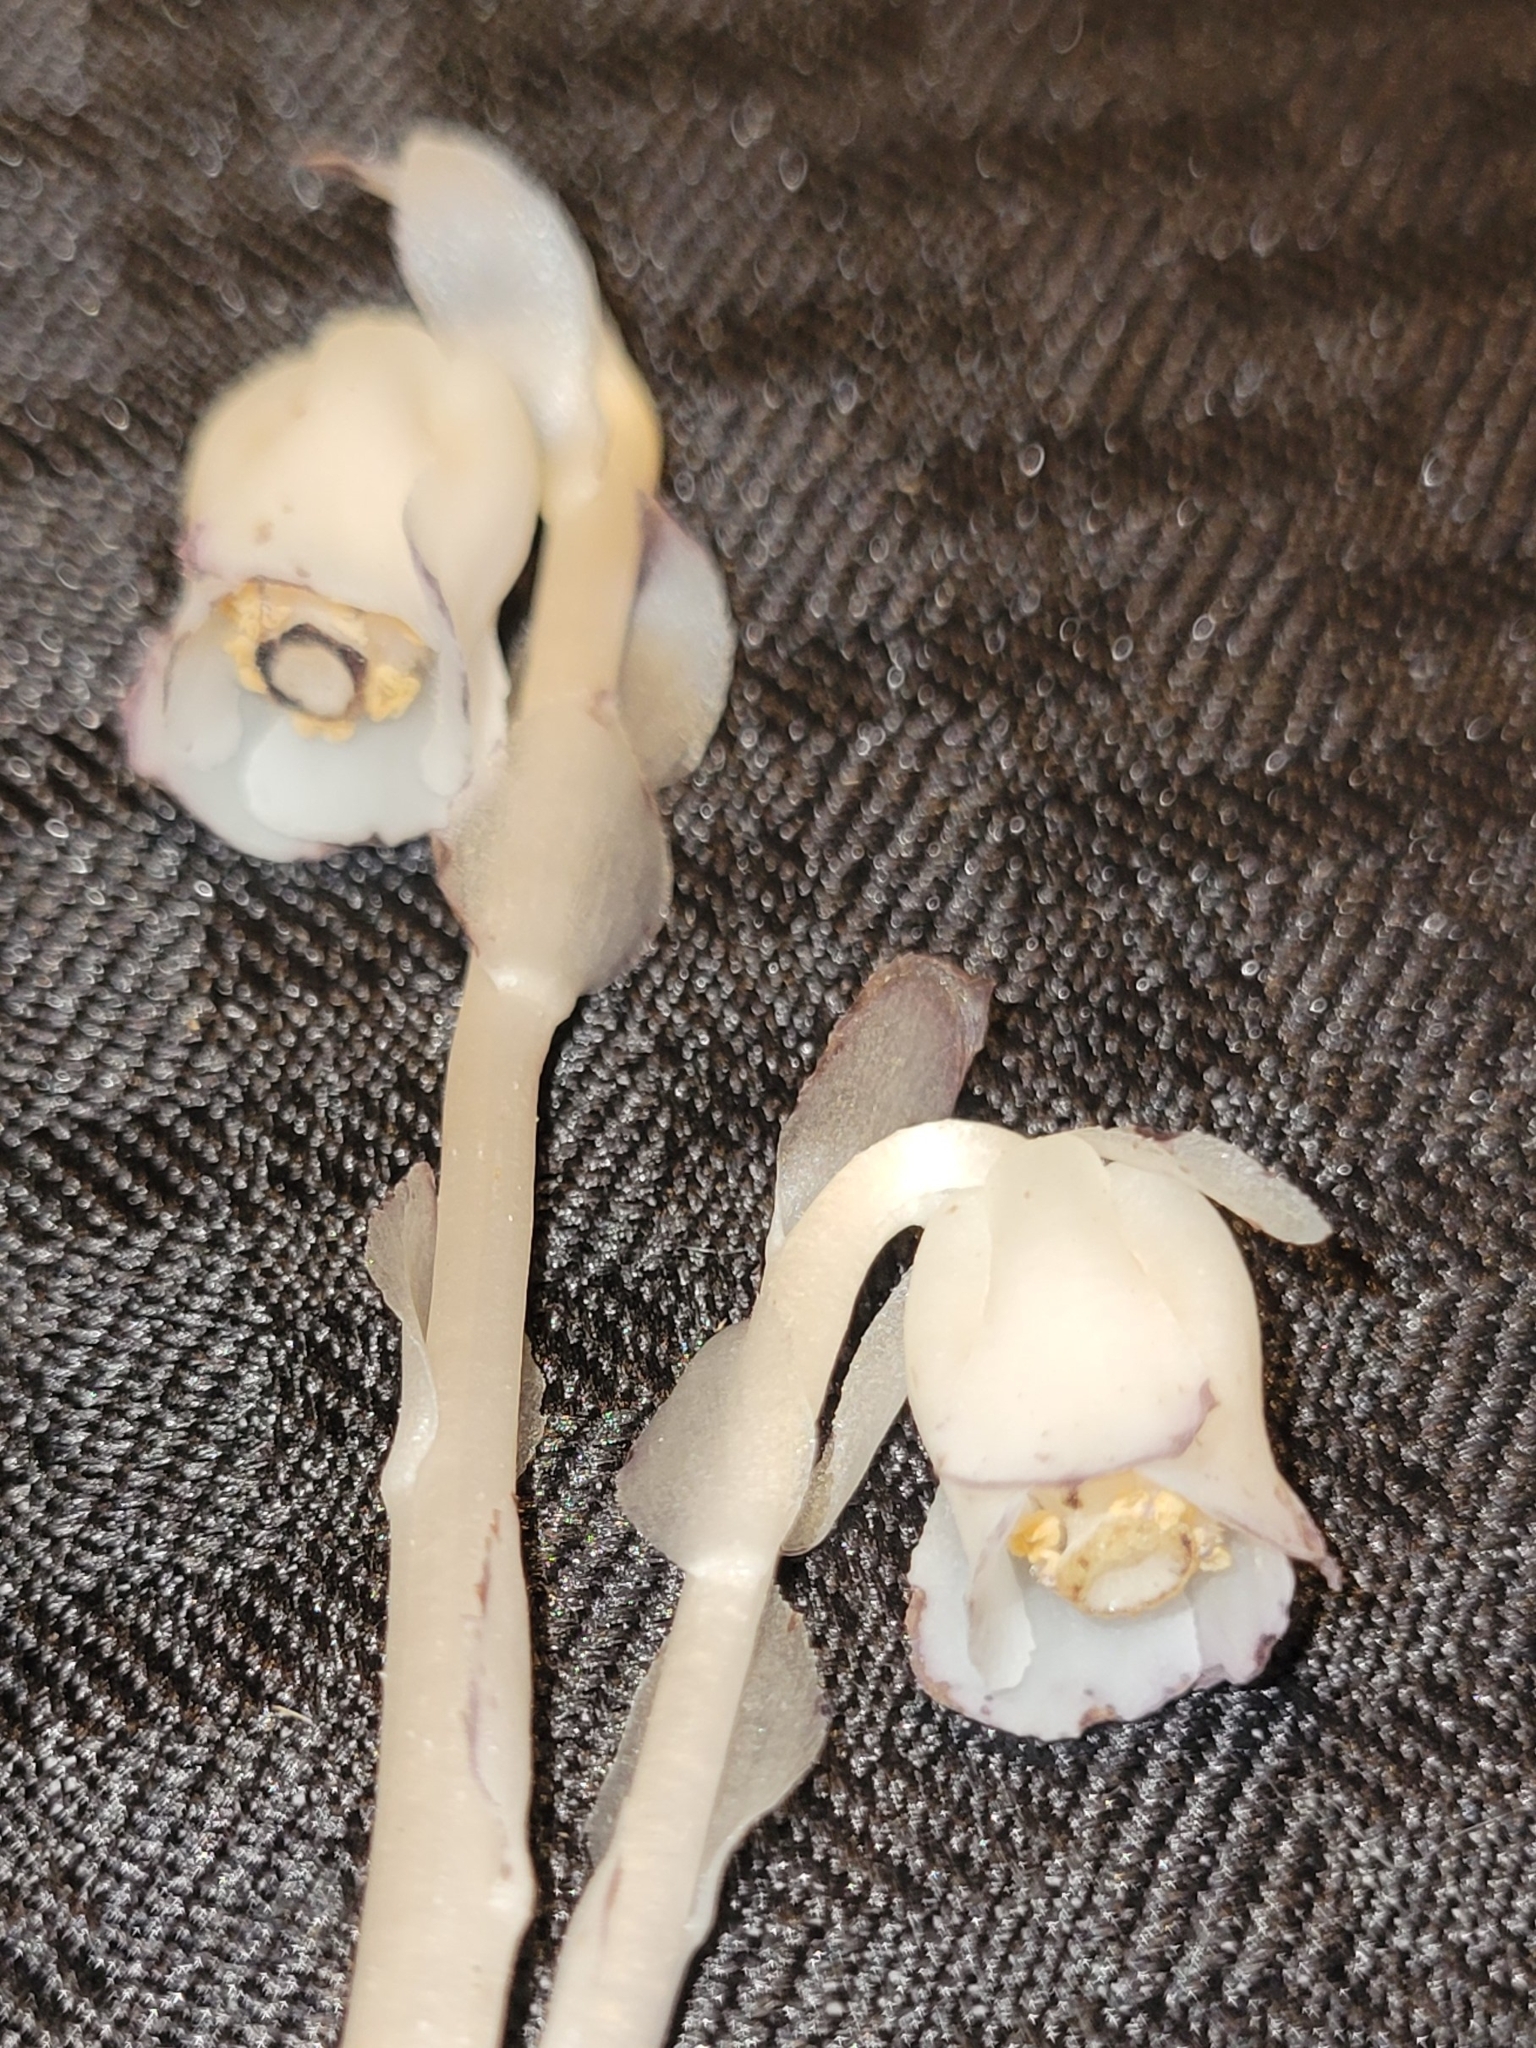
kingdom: Plantae
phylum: Tracheophyta
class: Magnoliopsida
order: Ericales
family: Ericaceae
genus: Monotropa
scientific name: Monotropa uniflora
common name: Convulsion root
